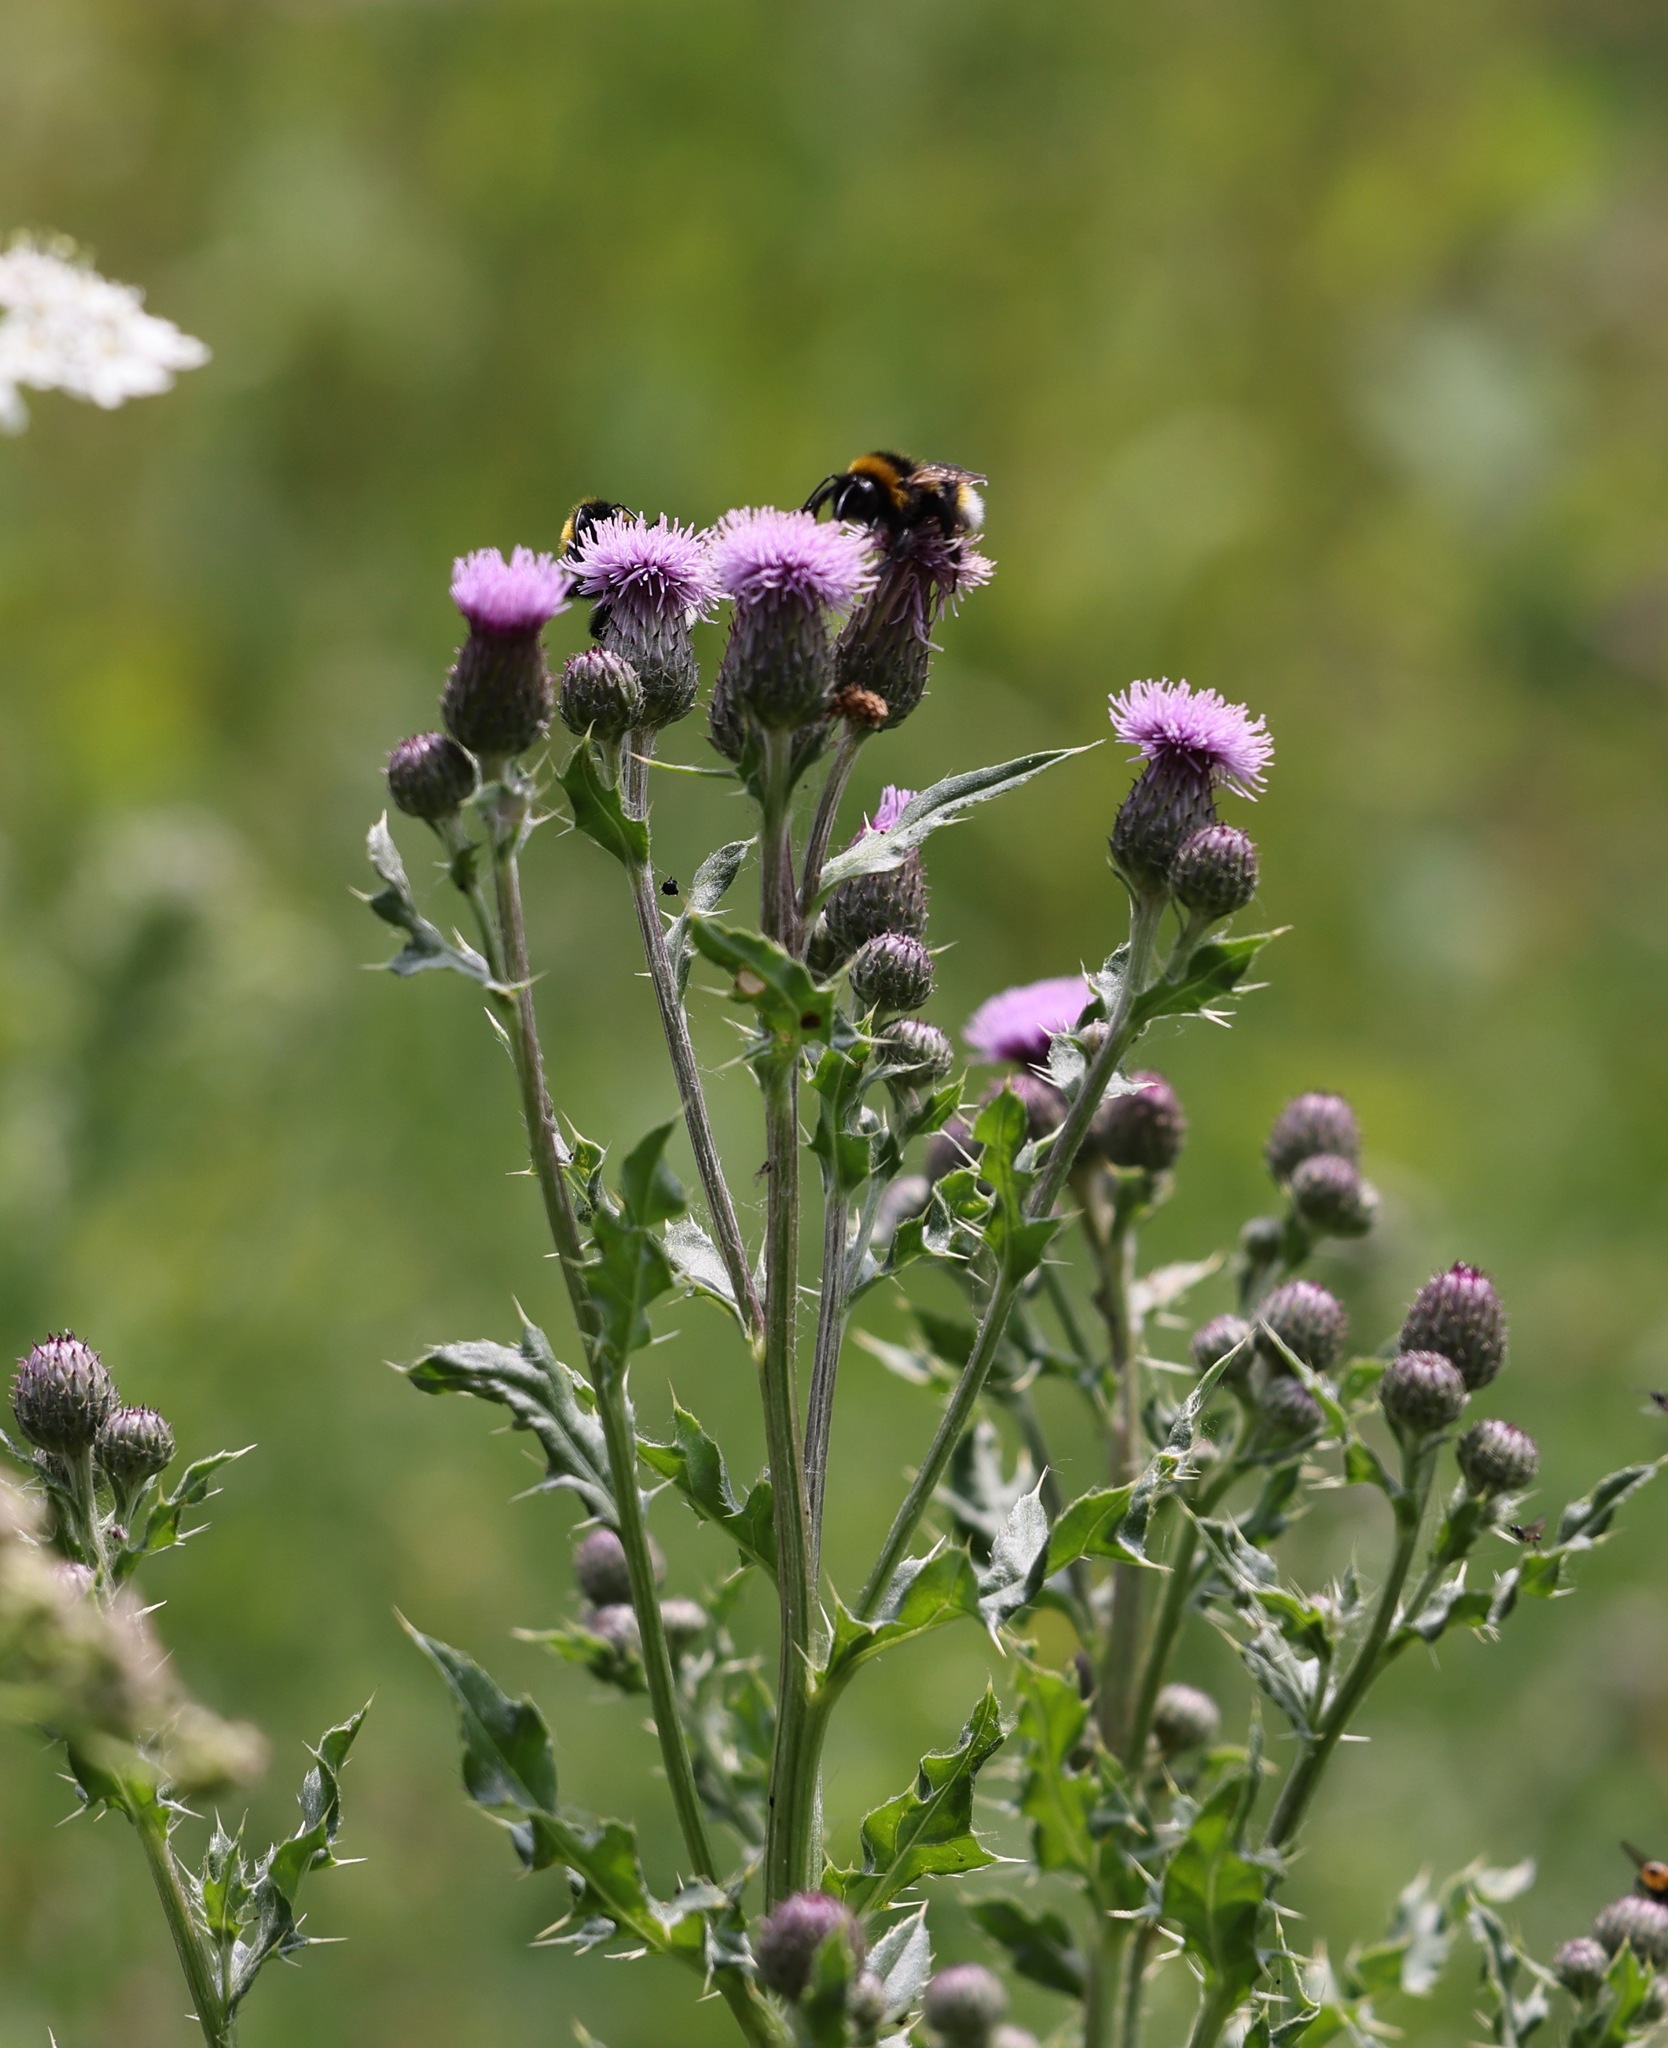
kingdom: Plantae
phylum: Tracheophyta
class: Magnoliopsida
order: Asterales
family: Asteraceae
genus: Cirsium
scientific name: Cirsium arvense
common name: Creeping thistle
